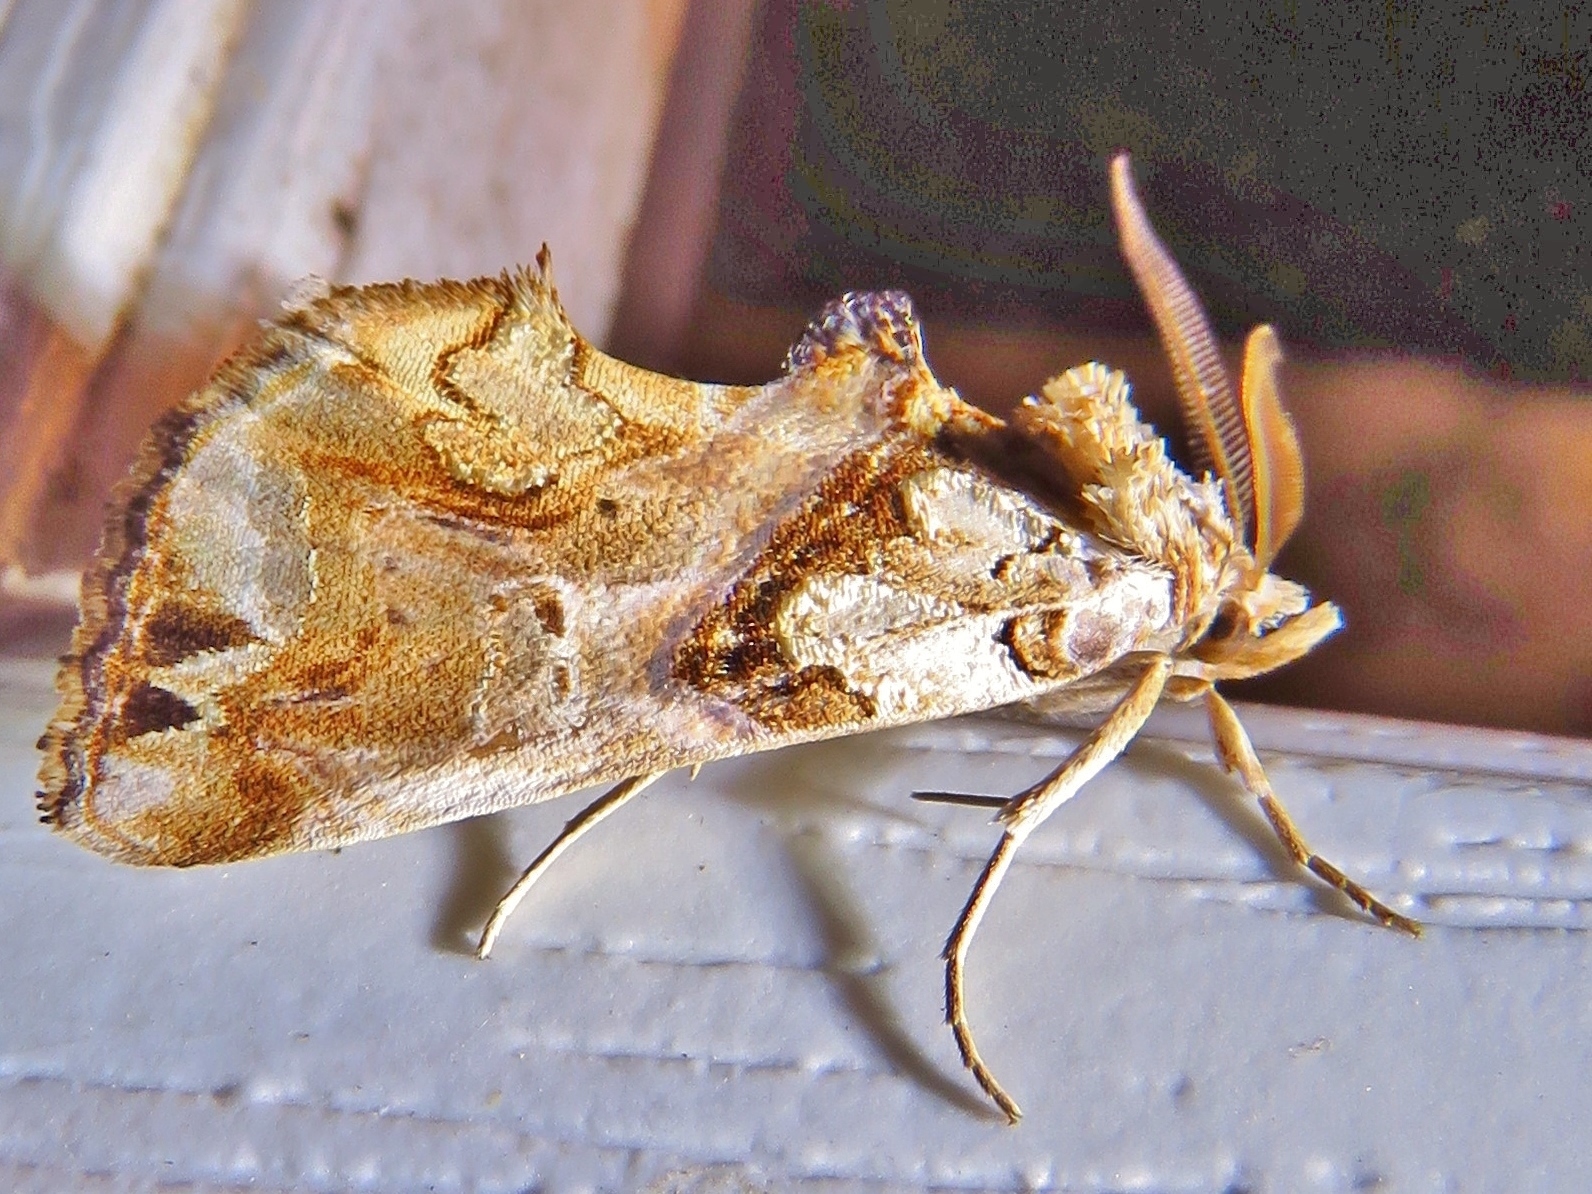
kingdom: Animalia
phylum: Arthropoda
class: Insecta
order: Lepidoptera
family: Erebidae
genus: Plusiodonta
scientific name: Plusiodonta compressipalpis
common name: Moonseed moth
